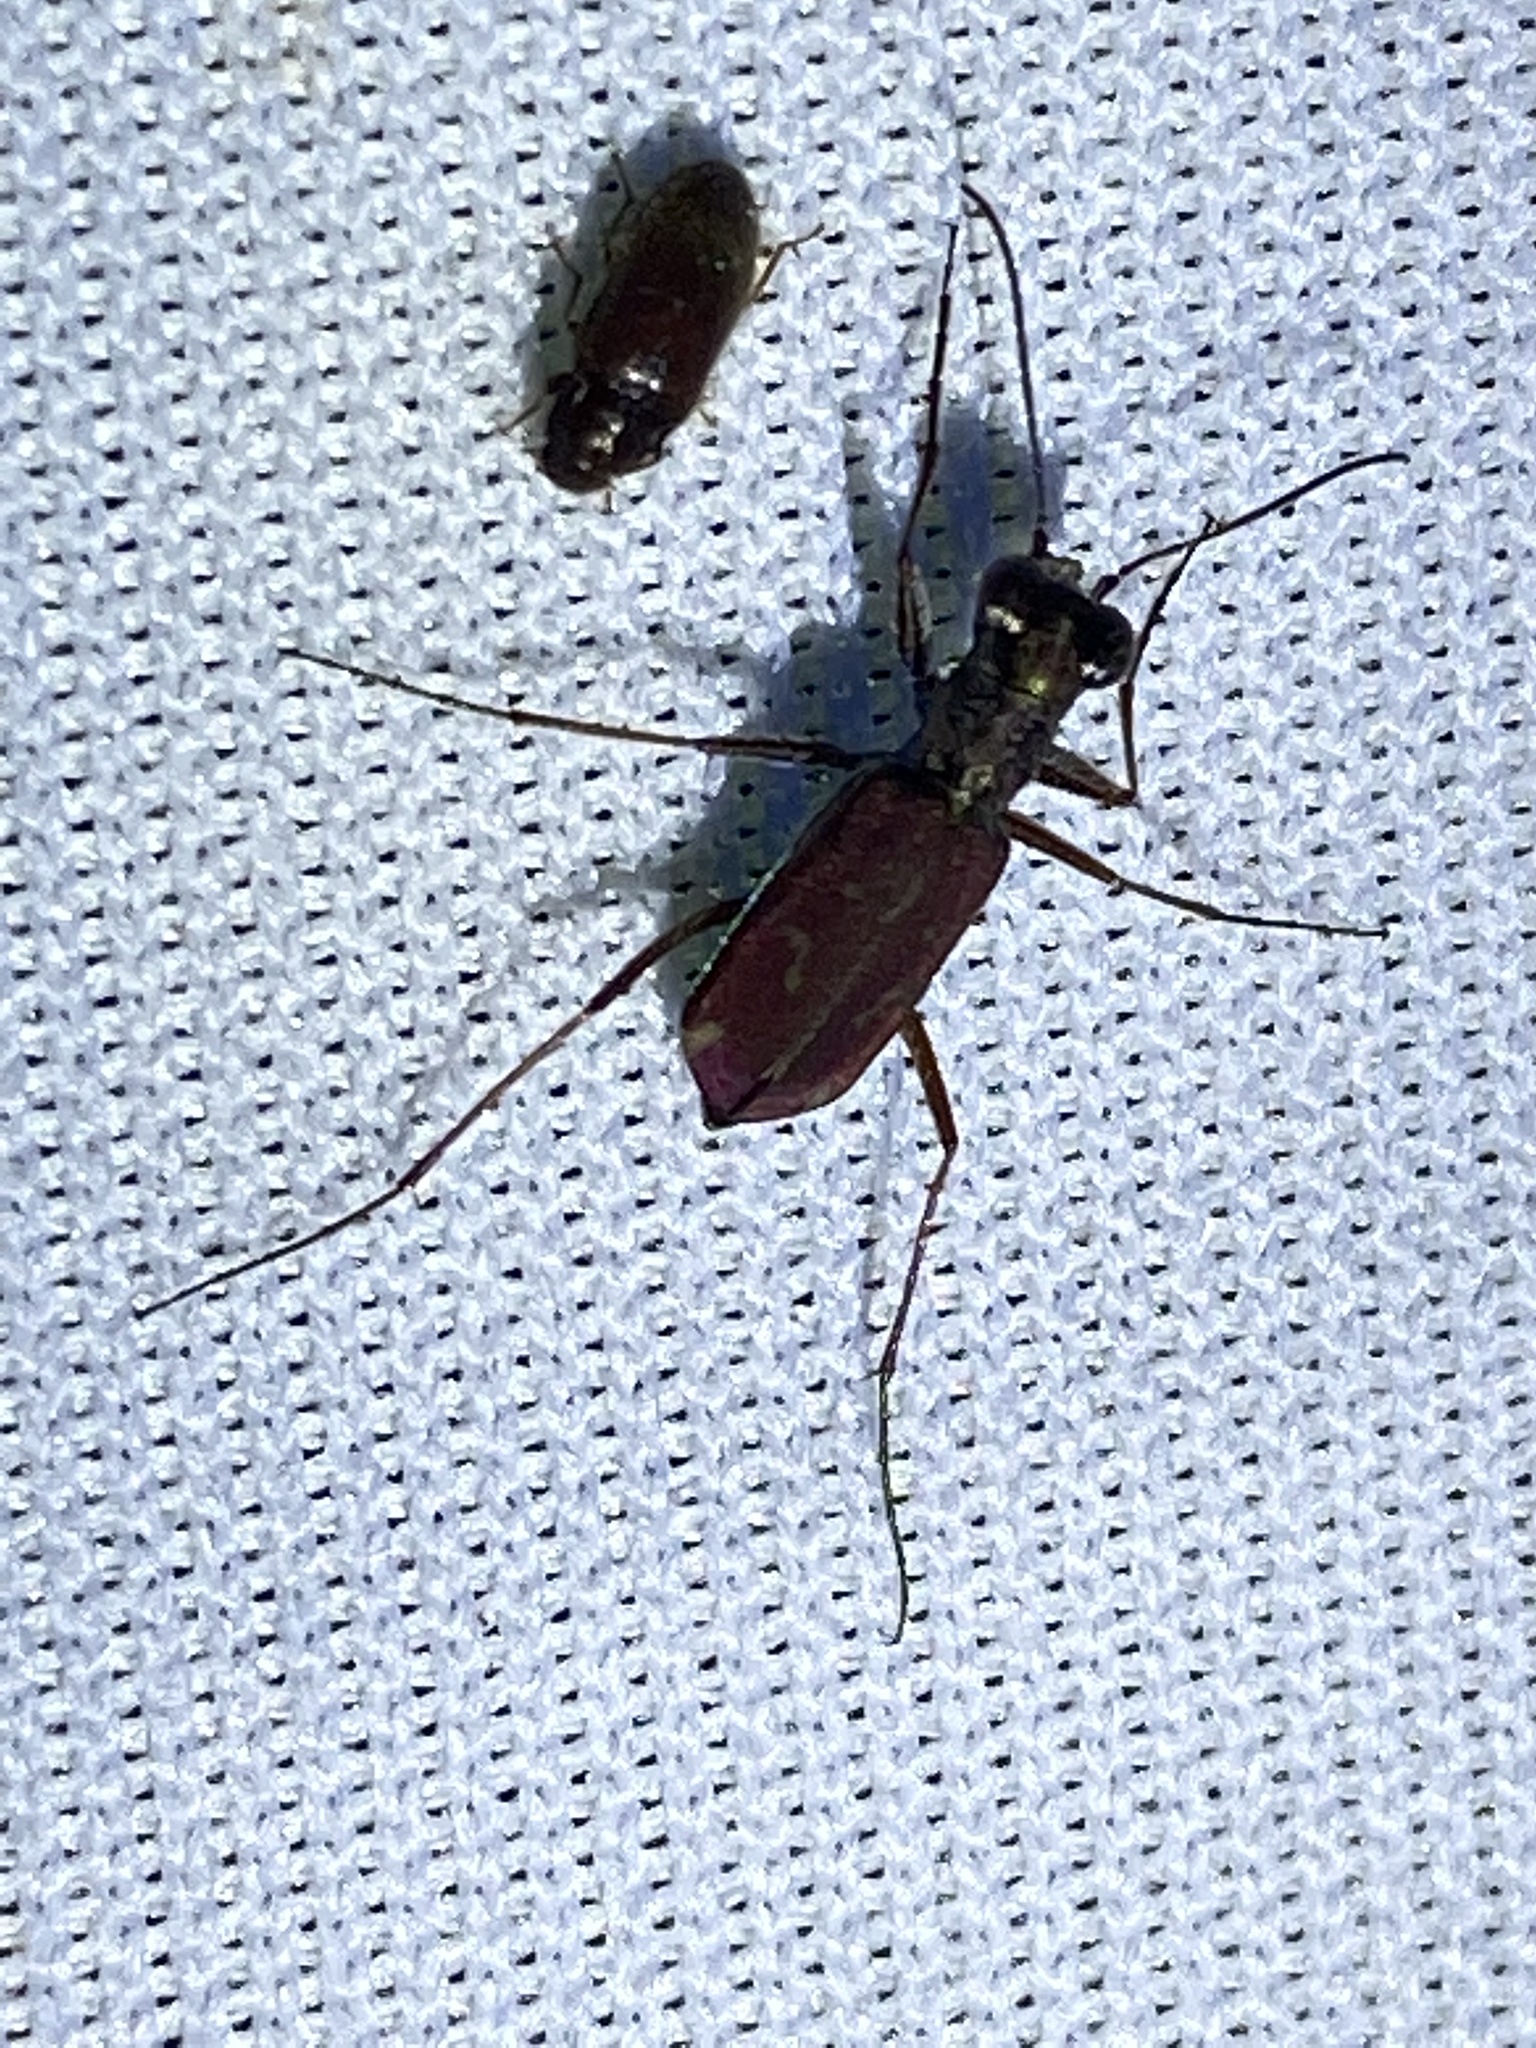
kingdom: Animalia
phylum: Arthropoda
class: Insecta
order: Coleoptera
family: Carabidae
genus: Brasiella
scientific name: Brasiella wickhami
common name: Sonoran tiger beetle
